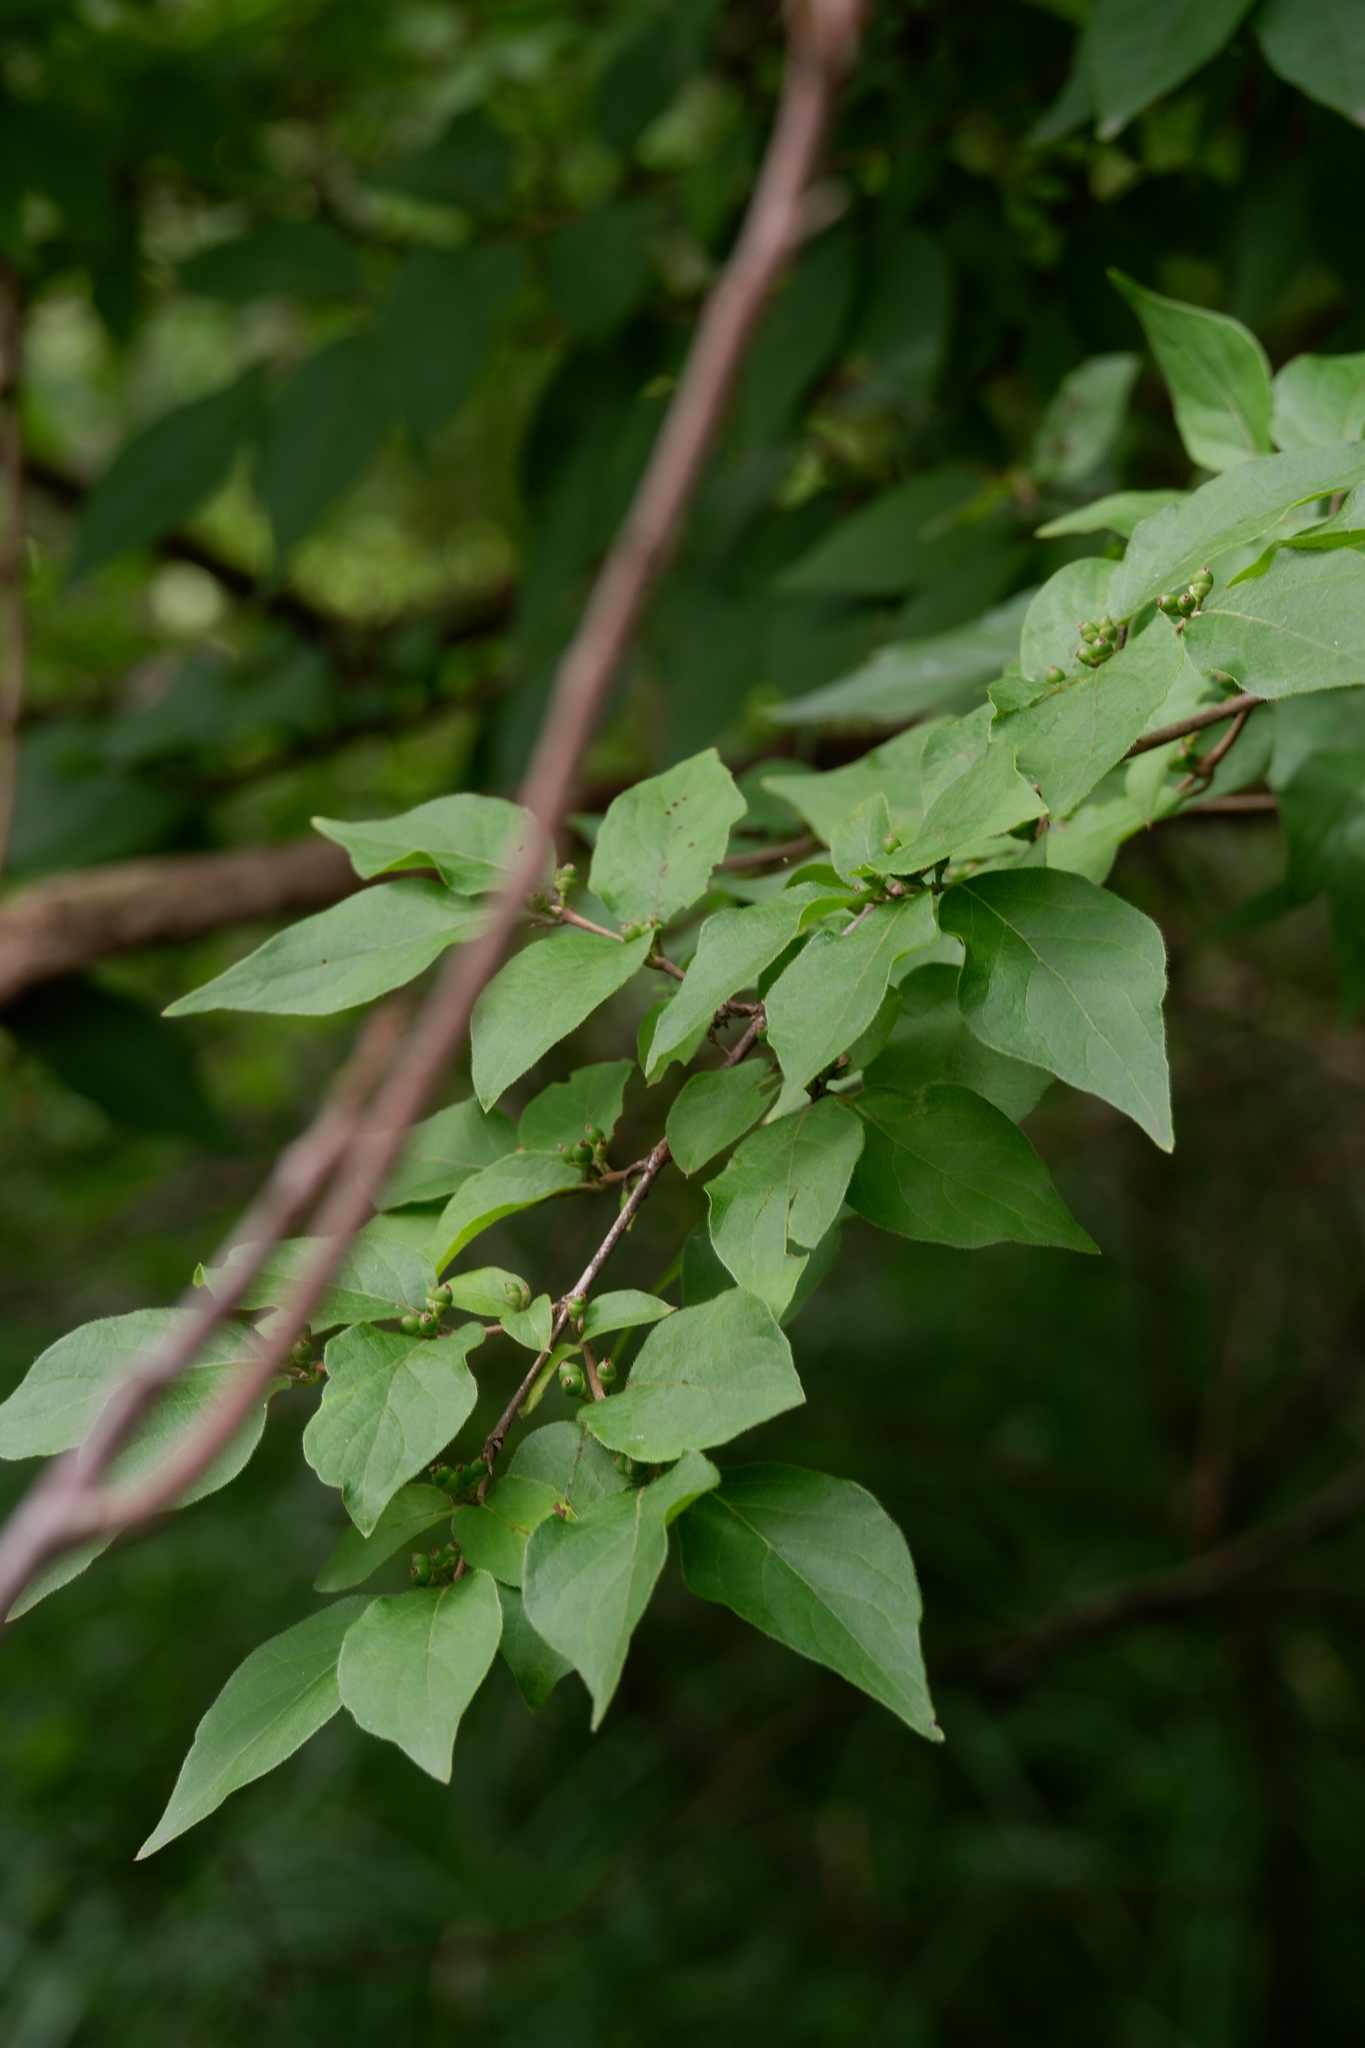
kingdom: Plantae
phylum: Tracheophyta
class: Magnoliopsida
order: Dipsacales
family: Caprifoliaceae
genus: Lonicera
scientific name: Lonicera maackii
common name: Amur honeysuckle
